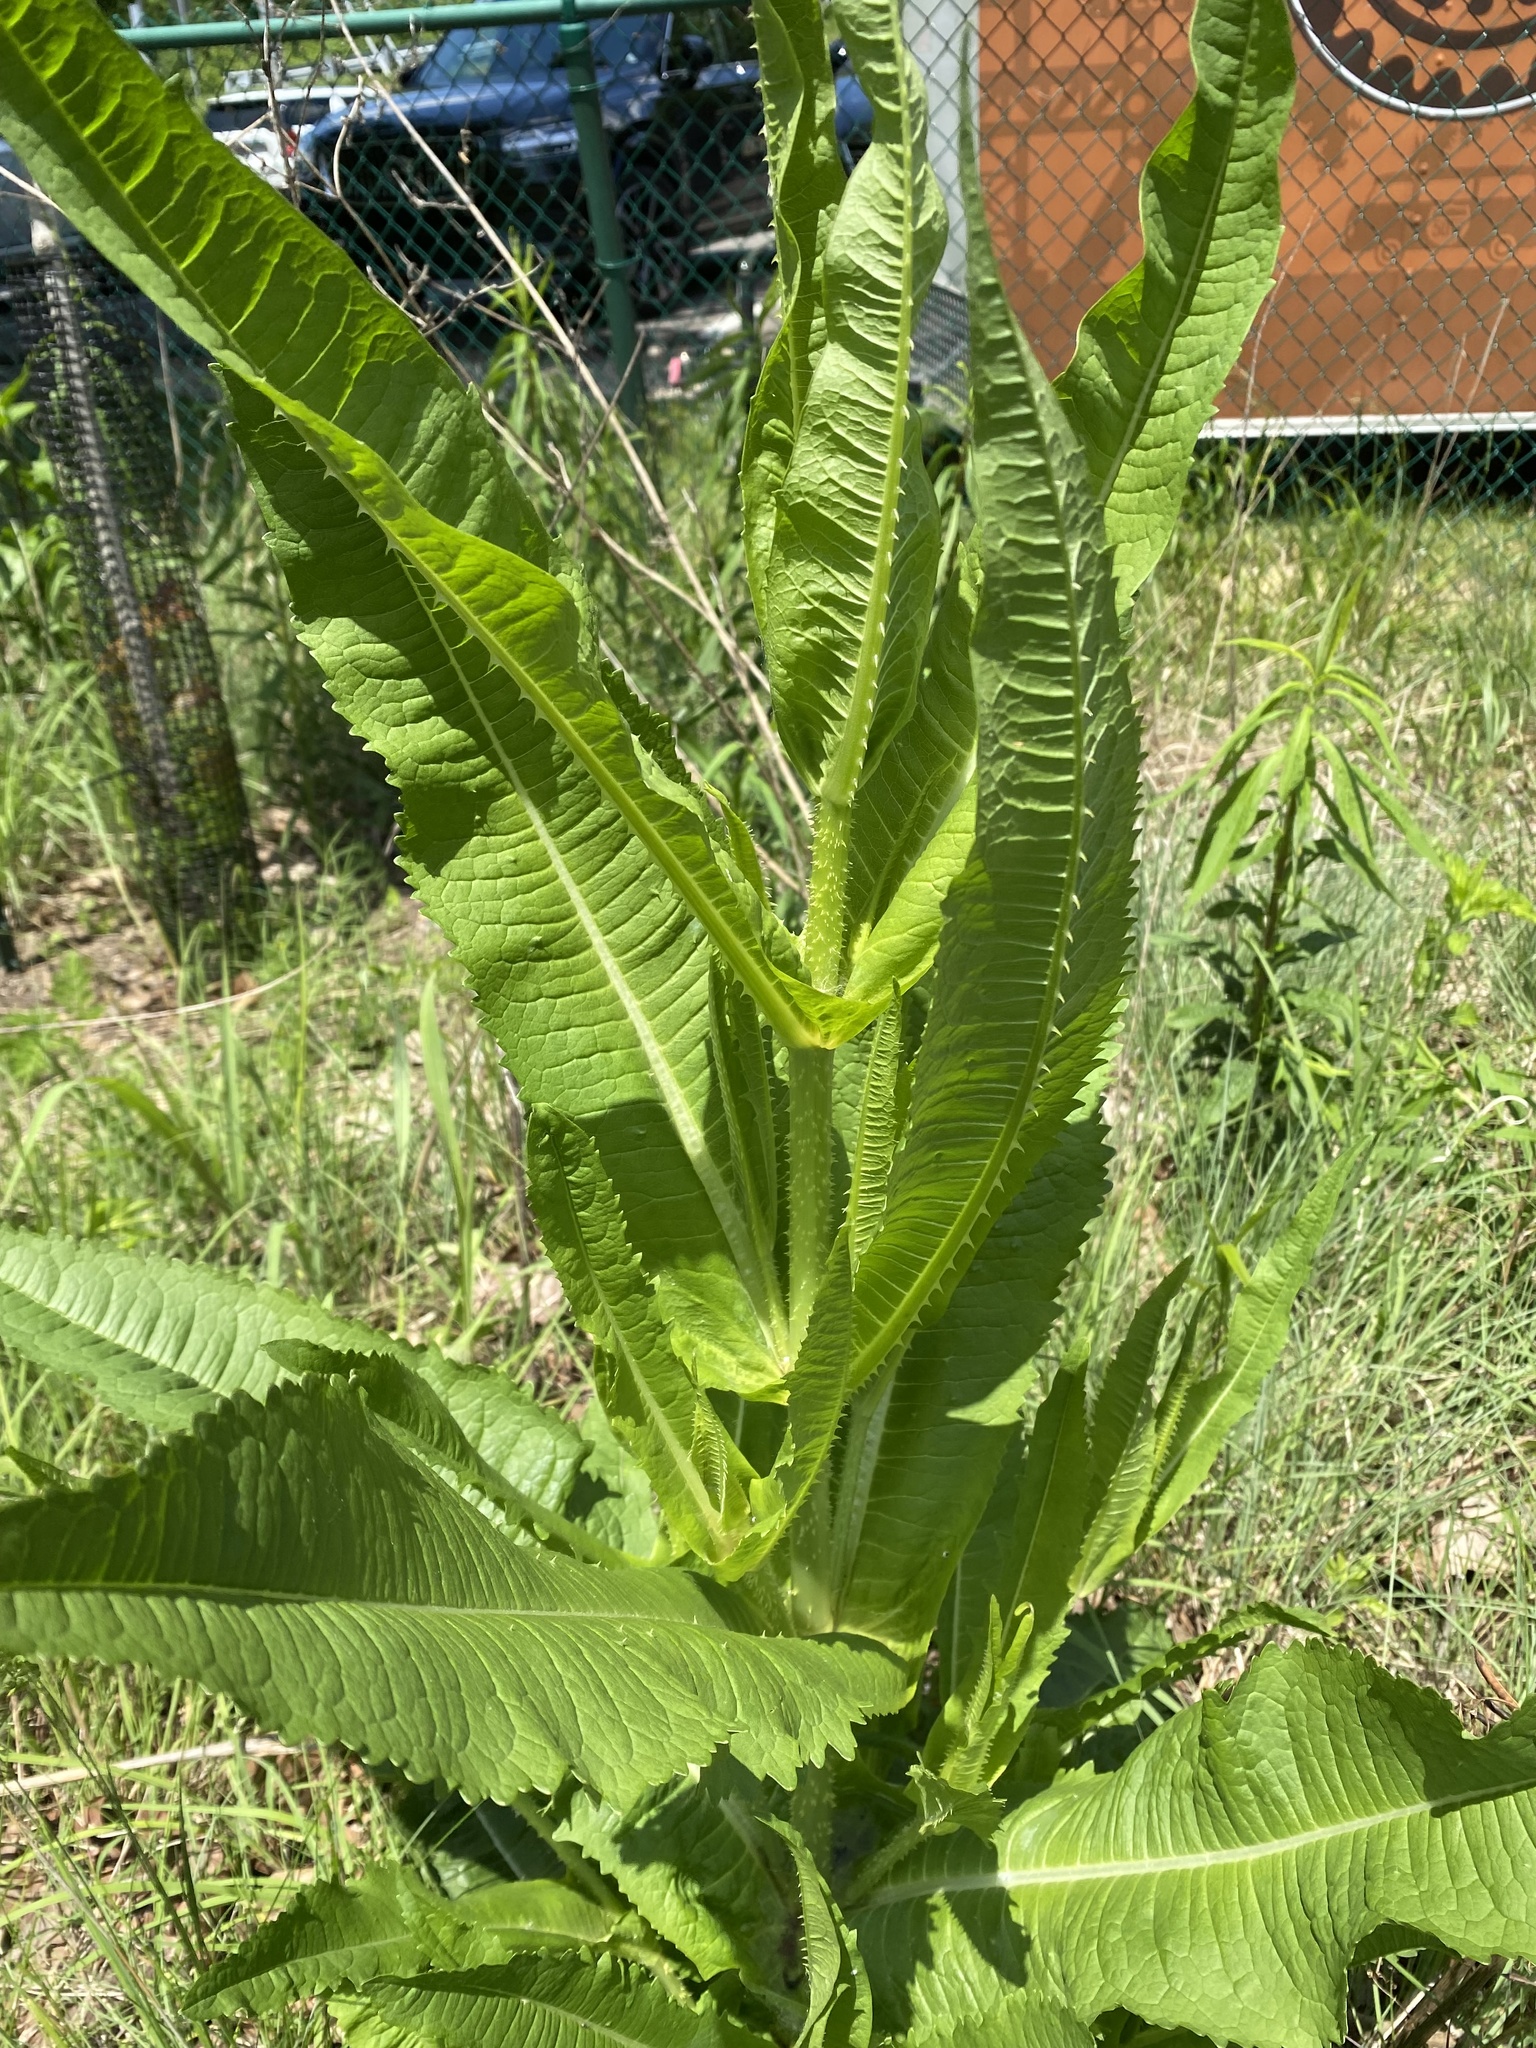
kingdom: Plantae
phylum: Tracheophyta
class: Magnoliopsida
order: Dipsacales
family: Caprifoliaceae
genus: Dipsacus
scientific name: Dipsacus fullonum
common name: Teasel
